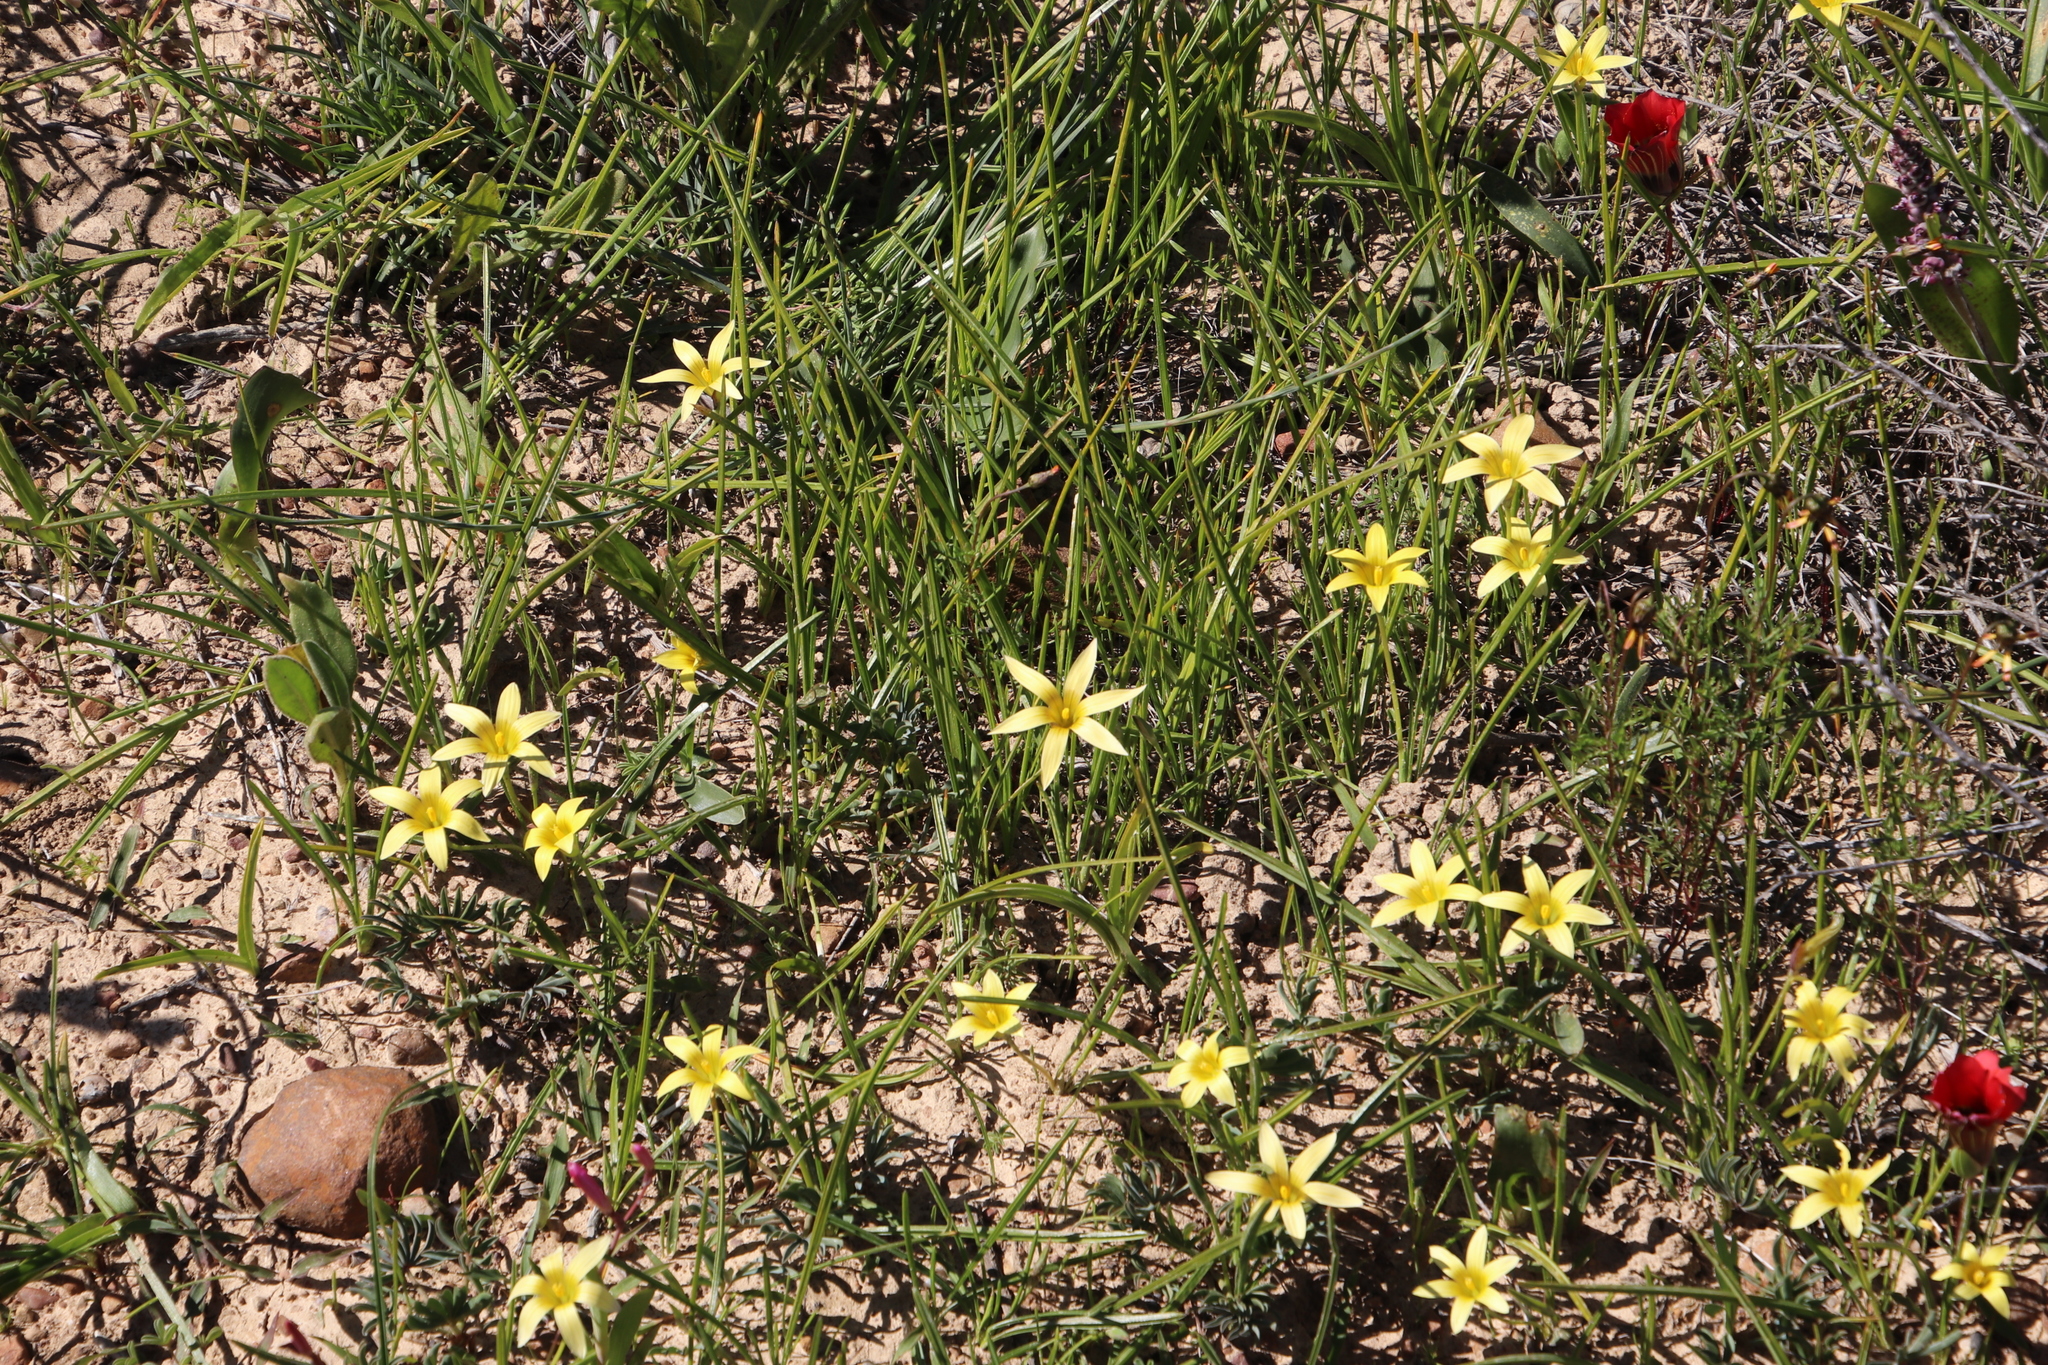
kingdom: Plantae
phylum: Tracheophyta
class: Liliopsida
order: Asparagales
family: Iridaceae
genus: Romulea
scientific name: Romulea hirta
